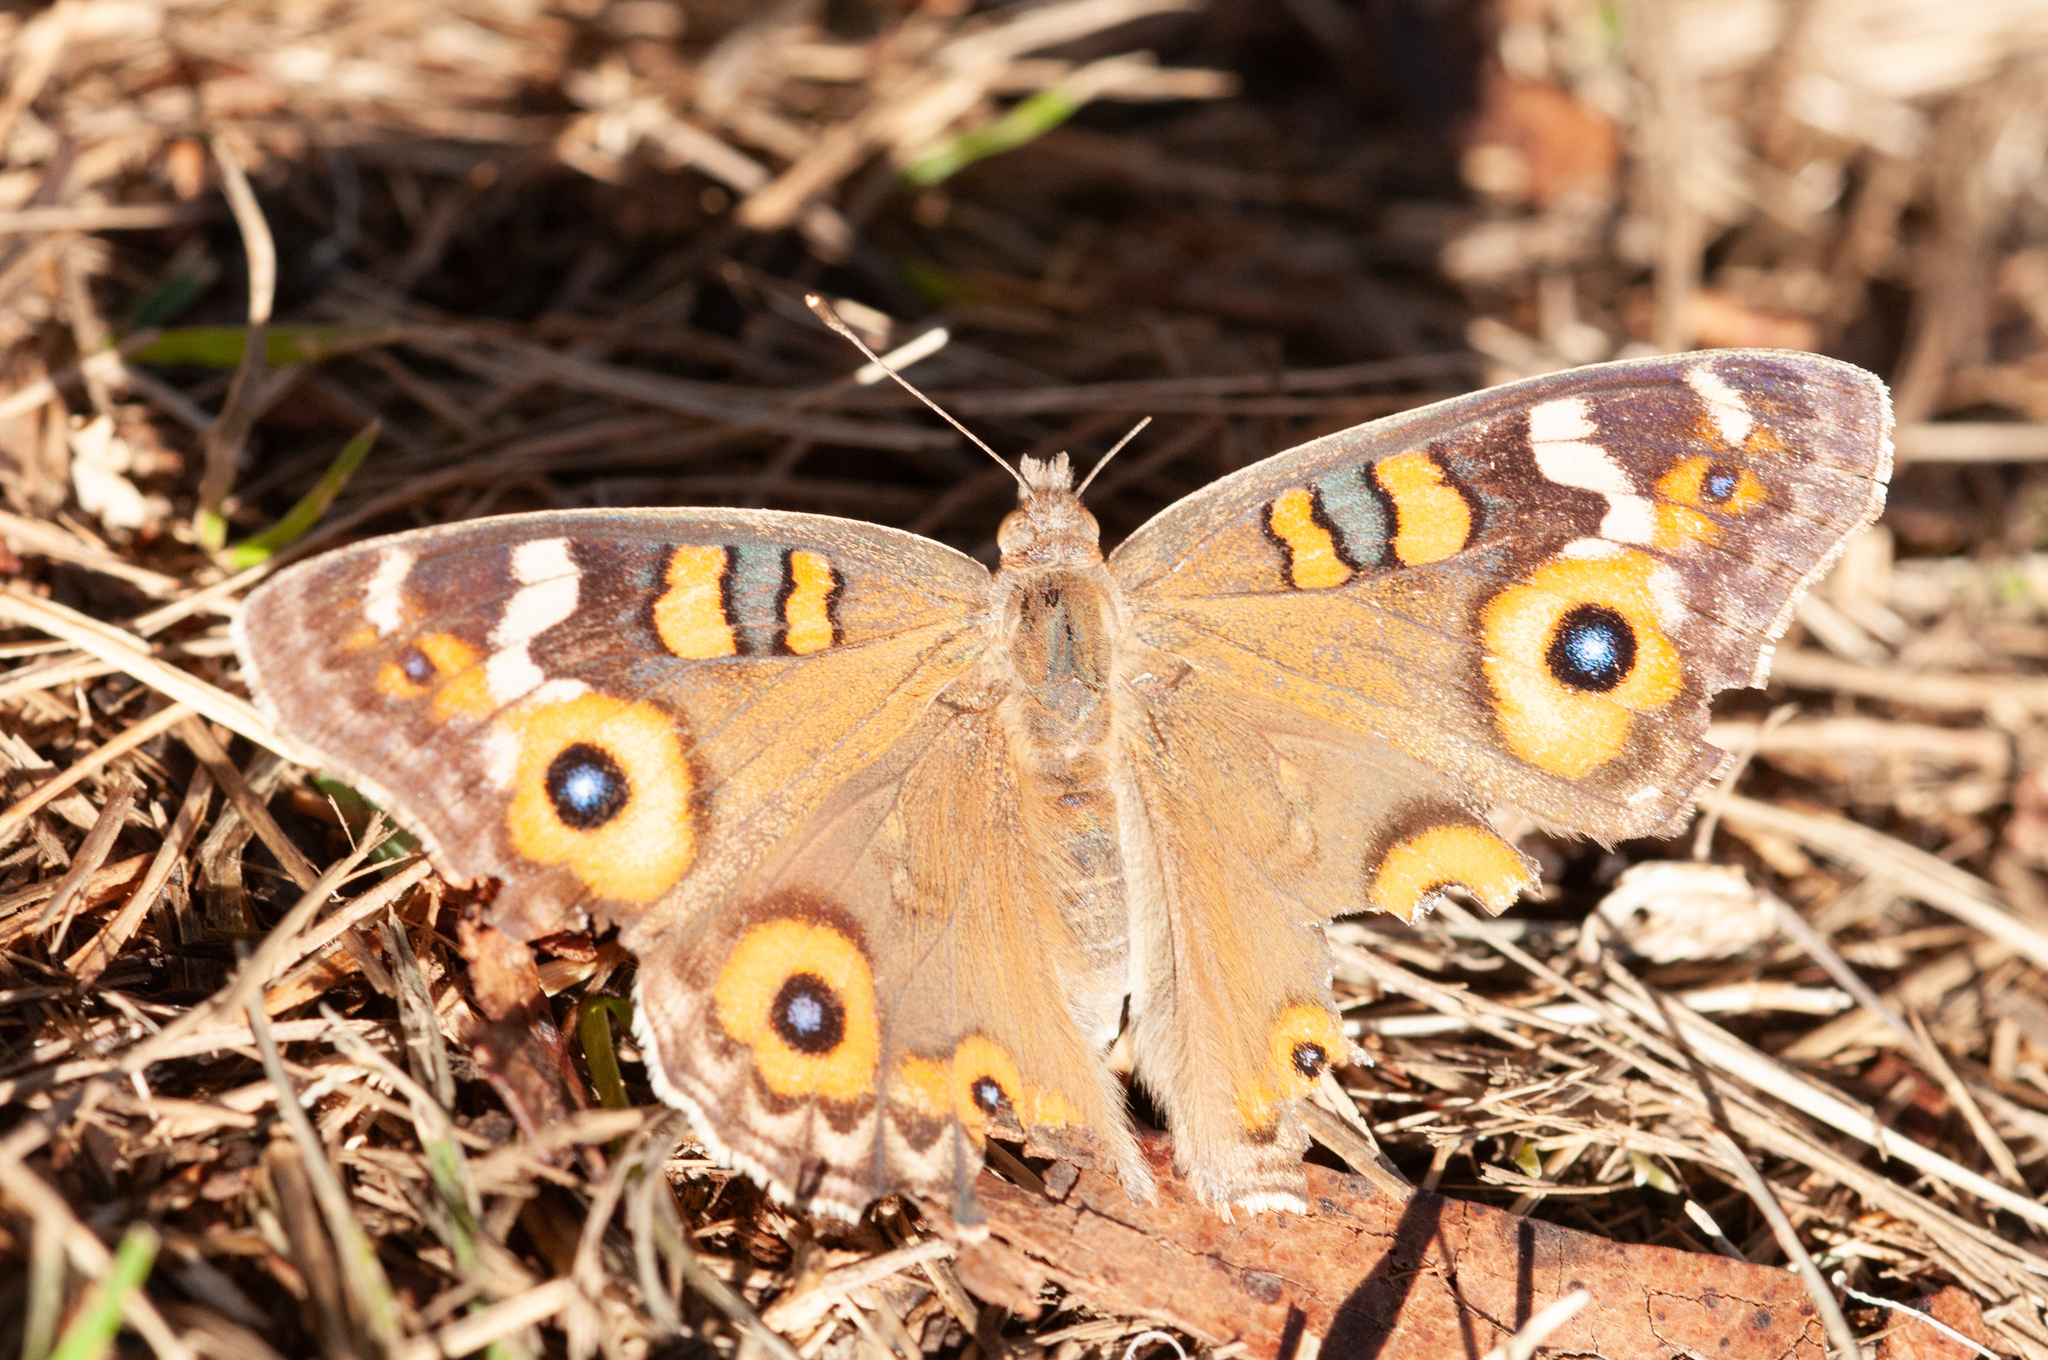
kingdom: Animalia
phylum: Arthropoda
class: Insecta
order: Lepidoptera
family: Nymphalidae
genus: Junonia
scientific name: Junonia villida
